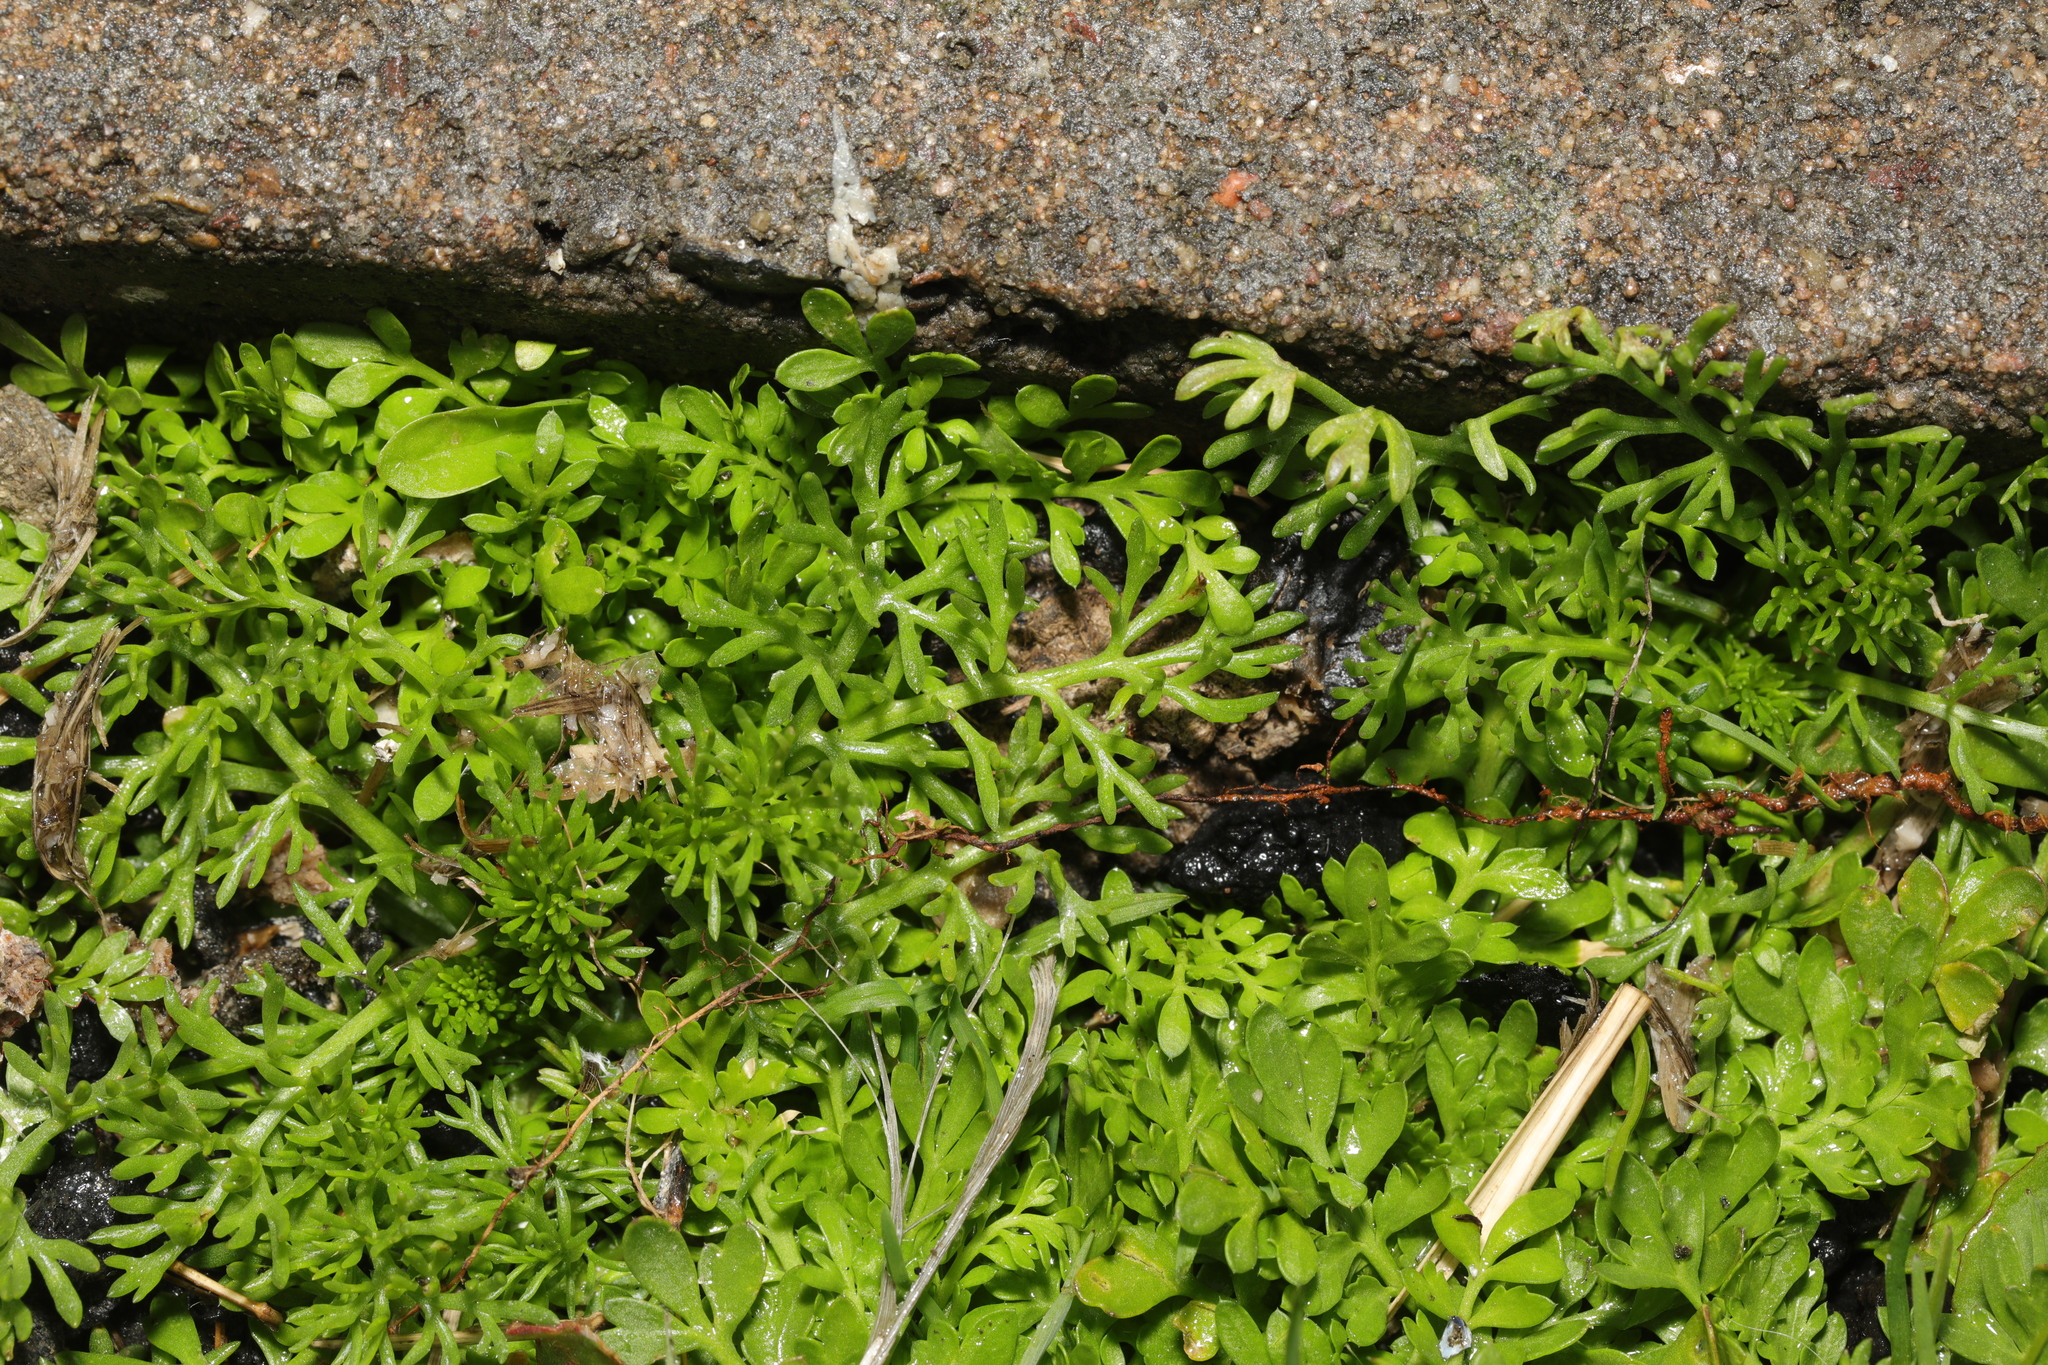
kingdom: Plantae
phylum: Tracheophyta
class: Magnoliopsida
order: Brassicales
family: Brassicaceae
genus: Lepidium
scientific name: Lepidium didymum
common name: Lesser swinecress
